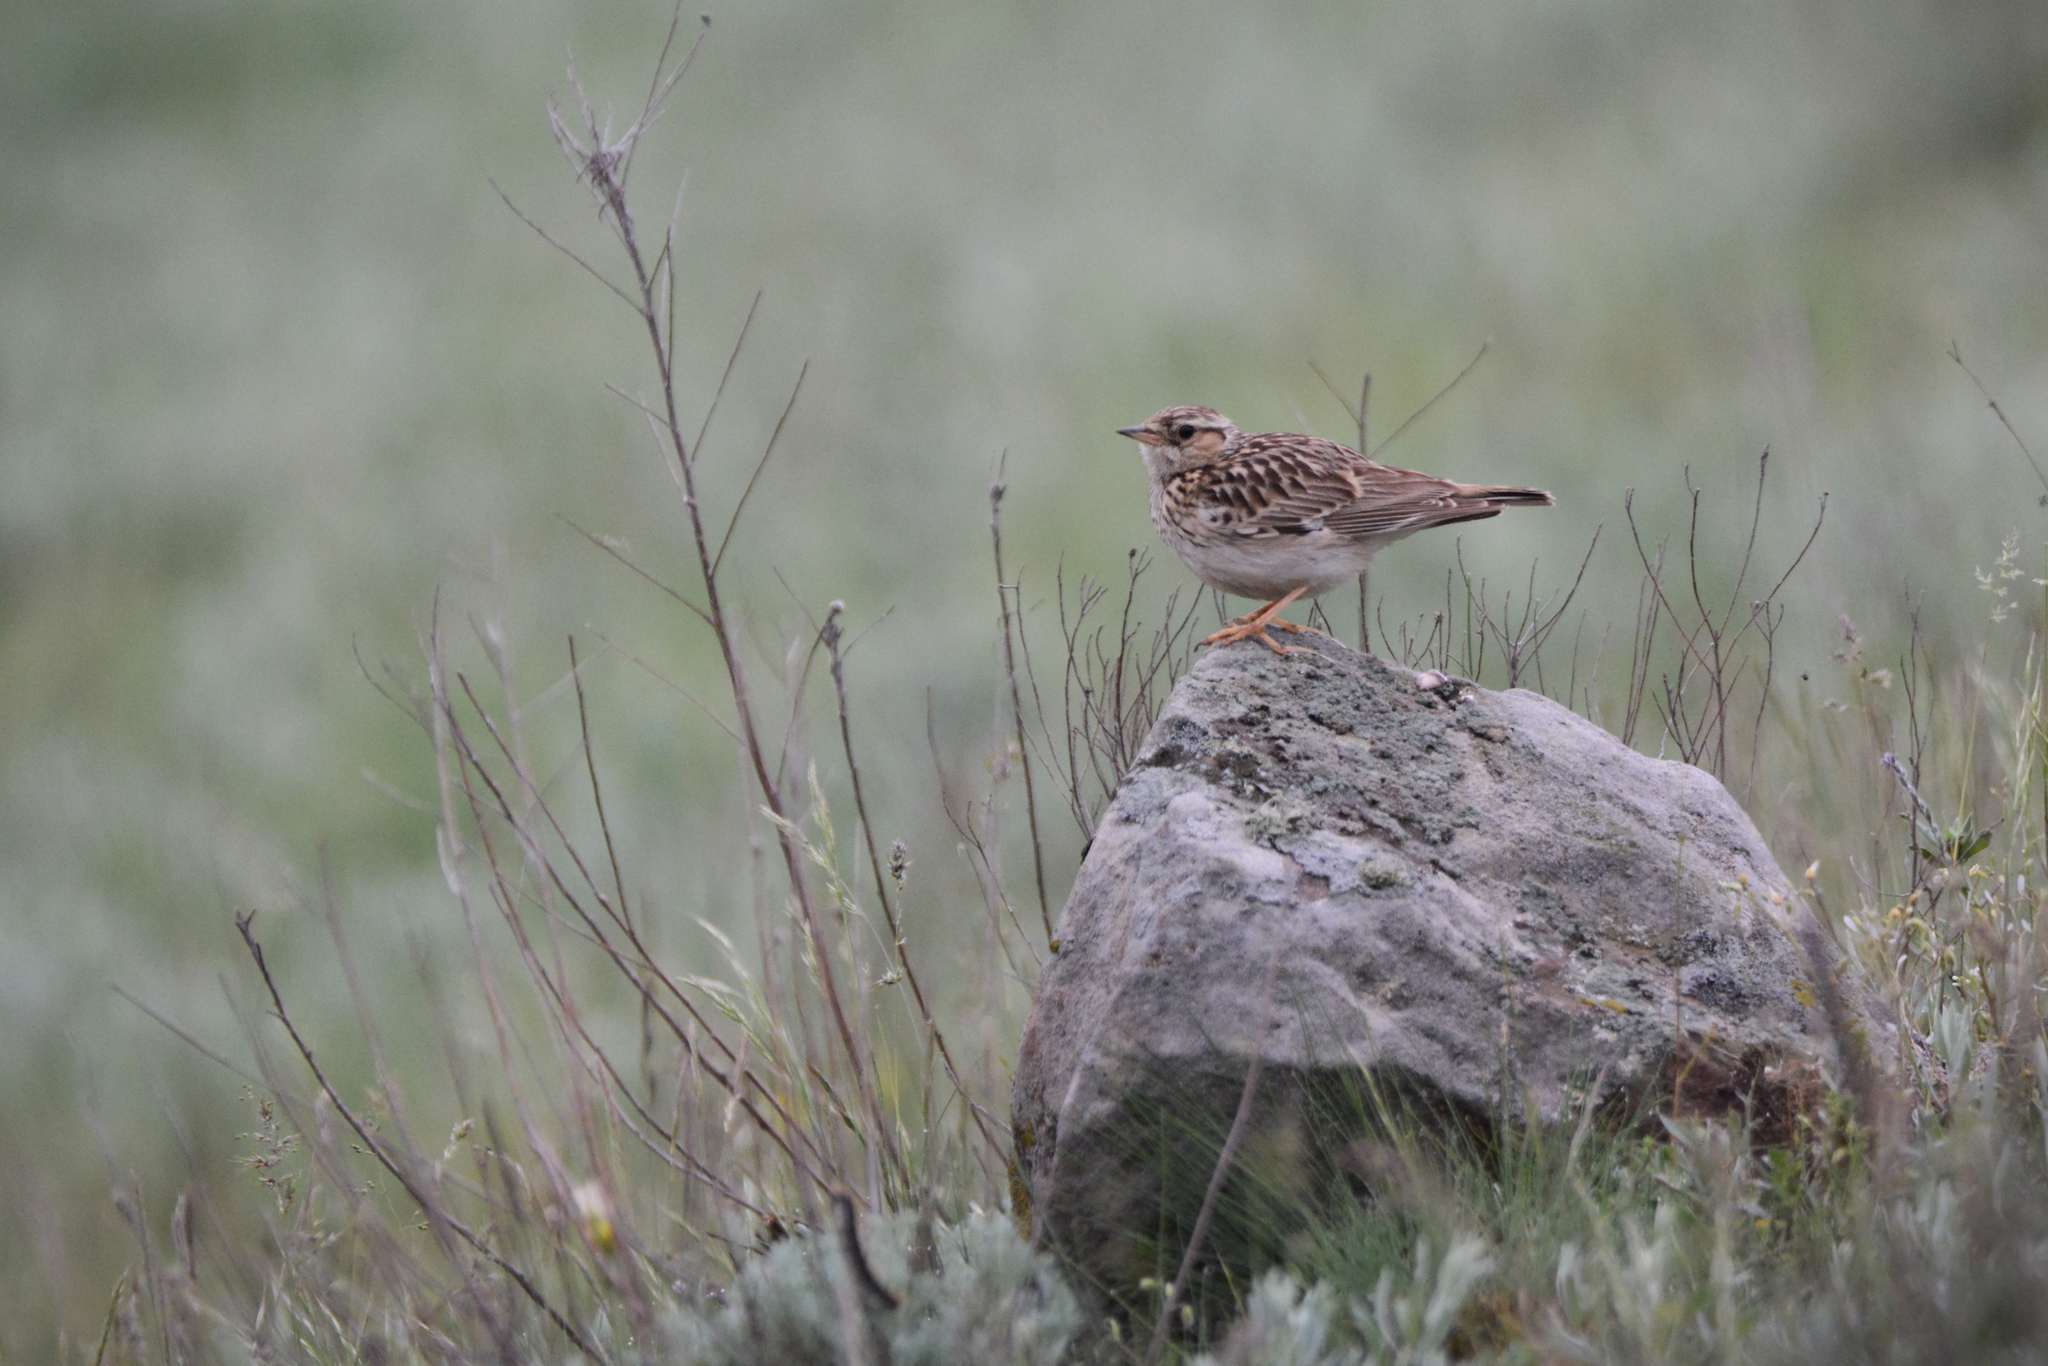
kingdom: Animalia
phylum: Chordata
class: Aves
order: Passeriformes
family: Alaudidae
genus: Lullula
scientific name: Lullula arborea
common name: Woodlark
